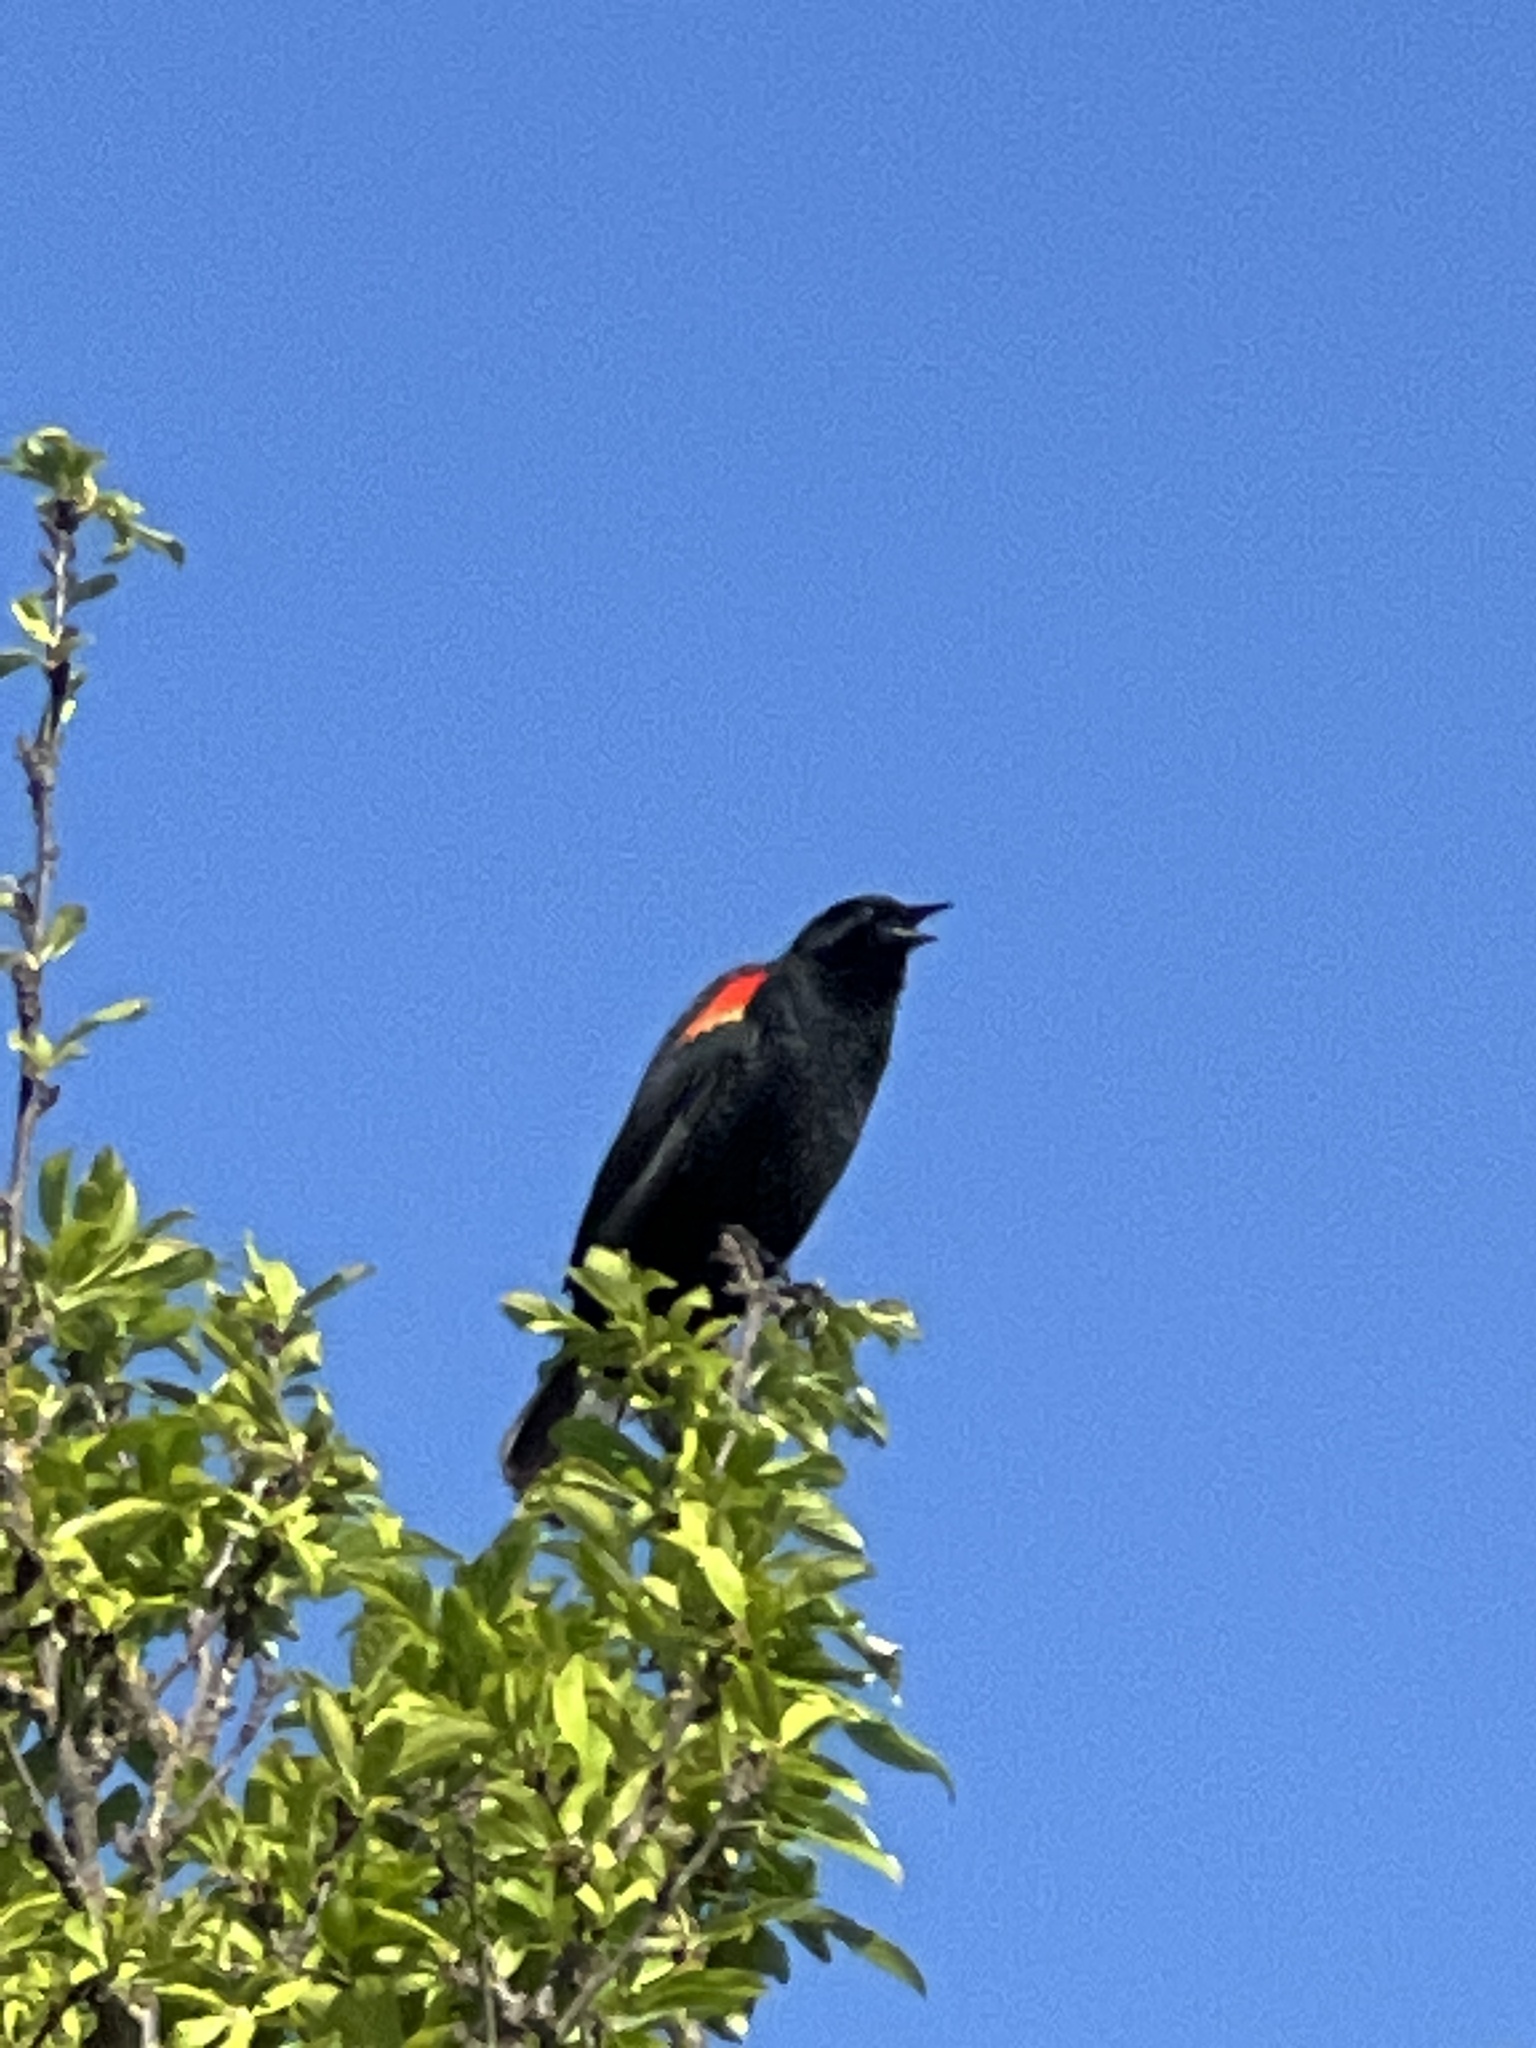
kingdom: Animalia
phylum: Chordata
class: Aves
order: Passeriformes
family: Icteridae
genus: Agelaius
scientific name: Agelaius phoeniceus
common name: Red-winged blackbird
